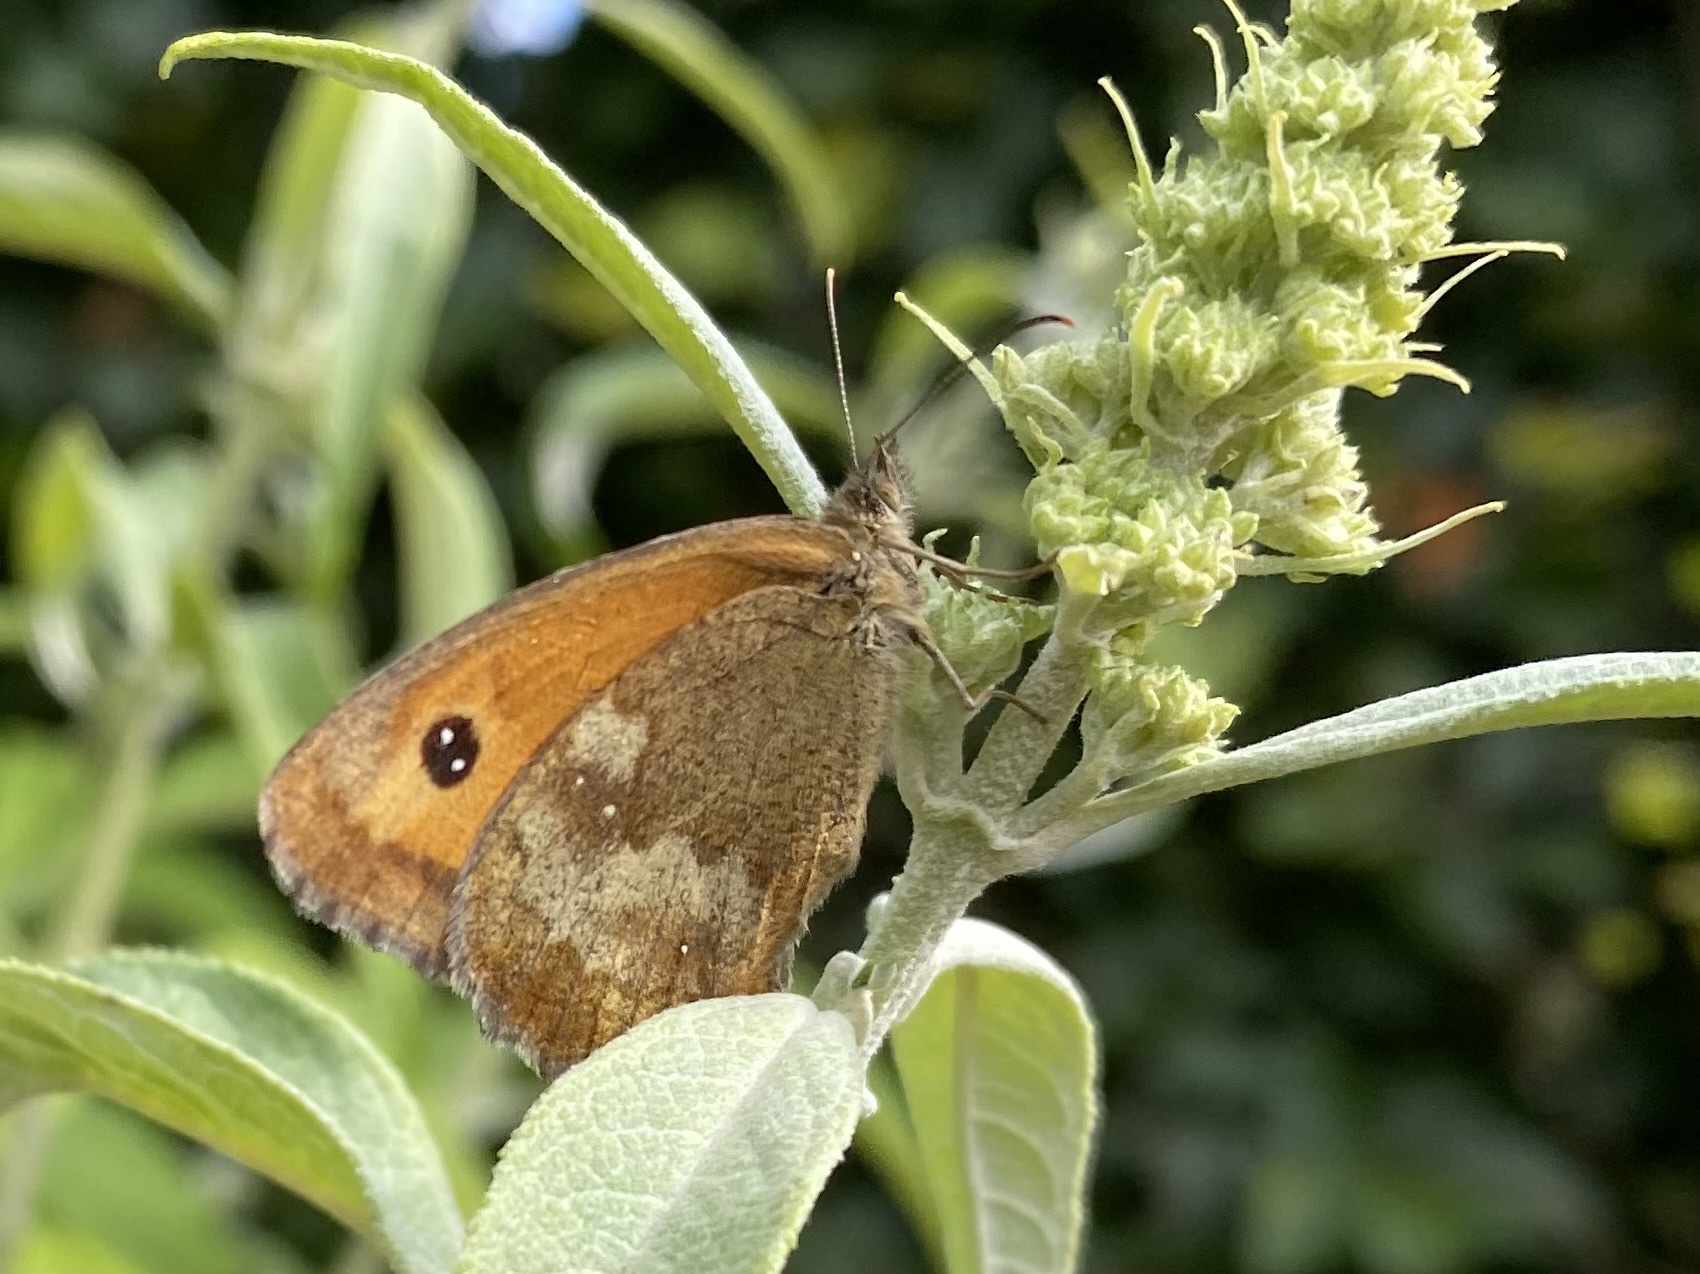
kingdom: Animalia
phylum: Arthropoda
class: Insecta
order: Lepidoptera
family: Nymphalidae
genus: Pyronia
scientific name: Pyronia tithonus
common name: Gatekeeper
